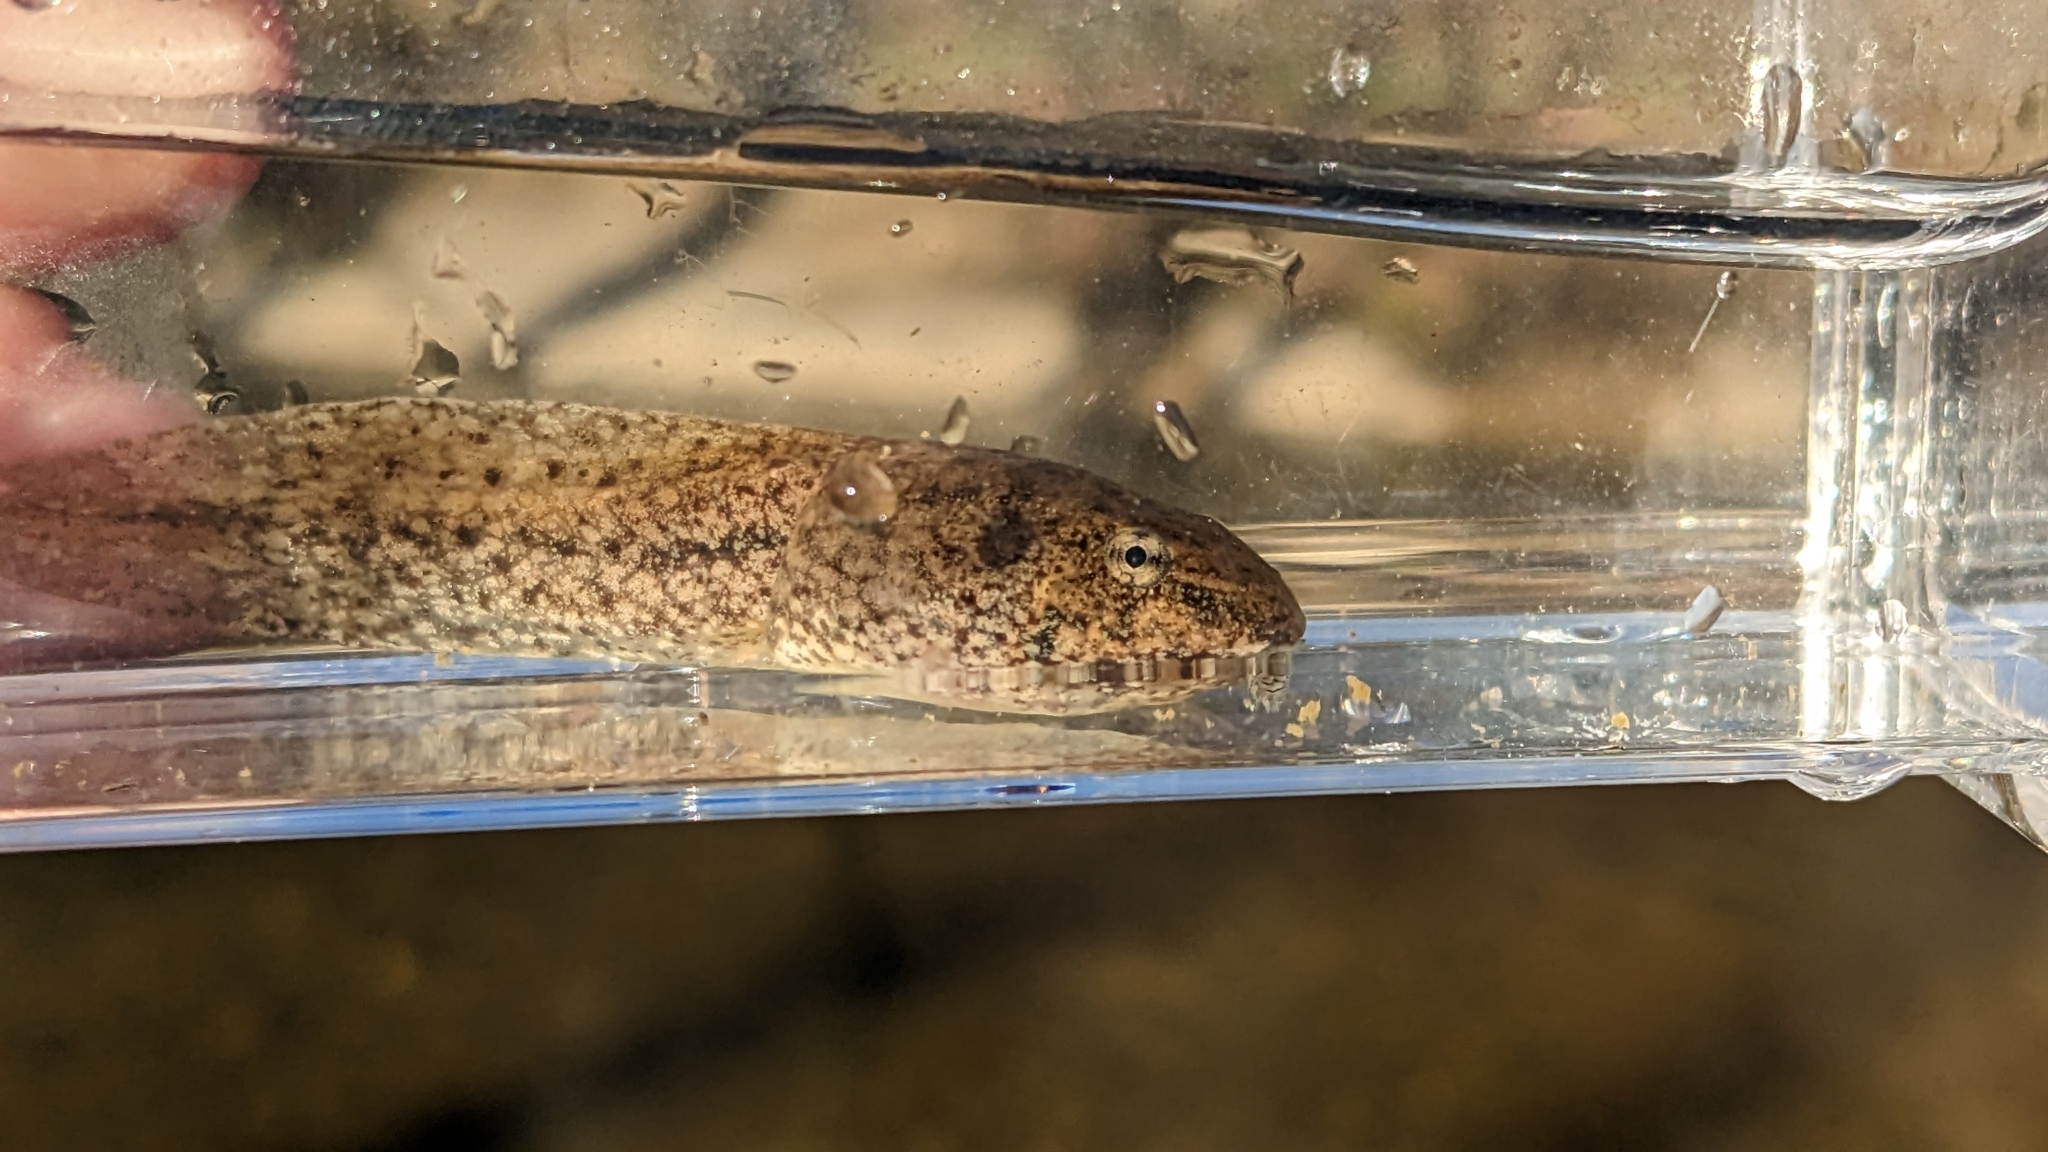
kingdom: Animalia
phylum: Chordata
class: Amphibia
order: Anura
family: Ranidae
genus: Lithobates
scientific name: Lithobates clamitans
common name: Green frog
